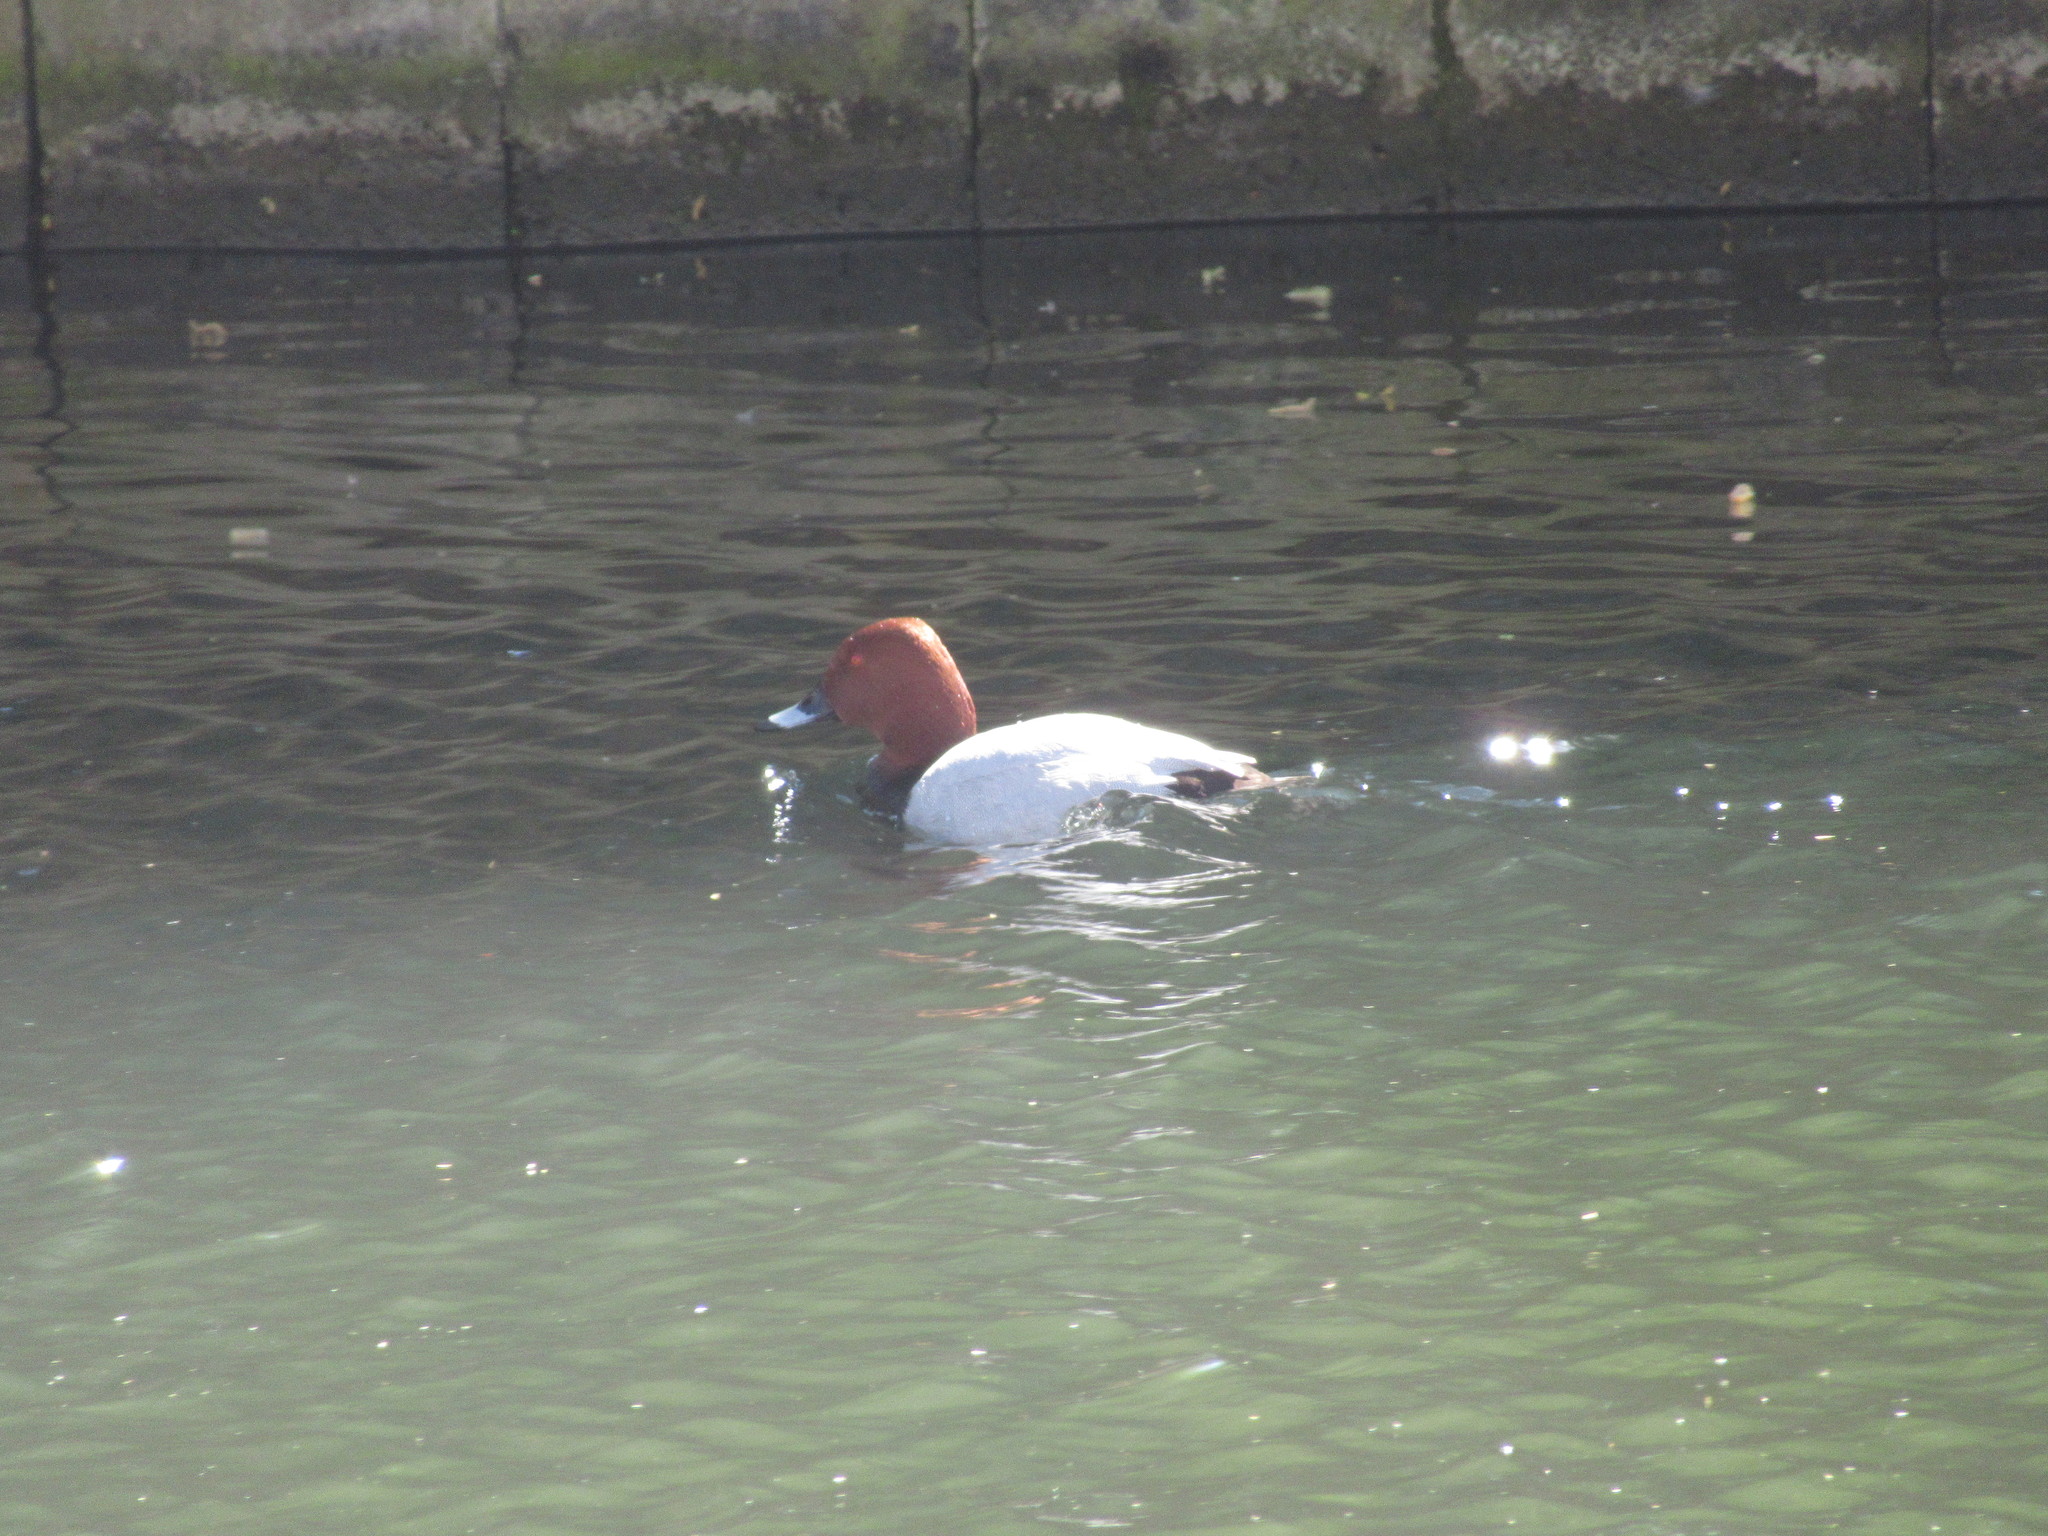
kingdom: Animalia
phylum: Chordata
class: Aves
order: Anseriformes
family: Anatidae
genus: Aythya
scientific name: Aythya ferina
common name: Common pochard
